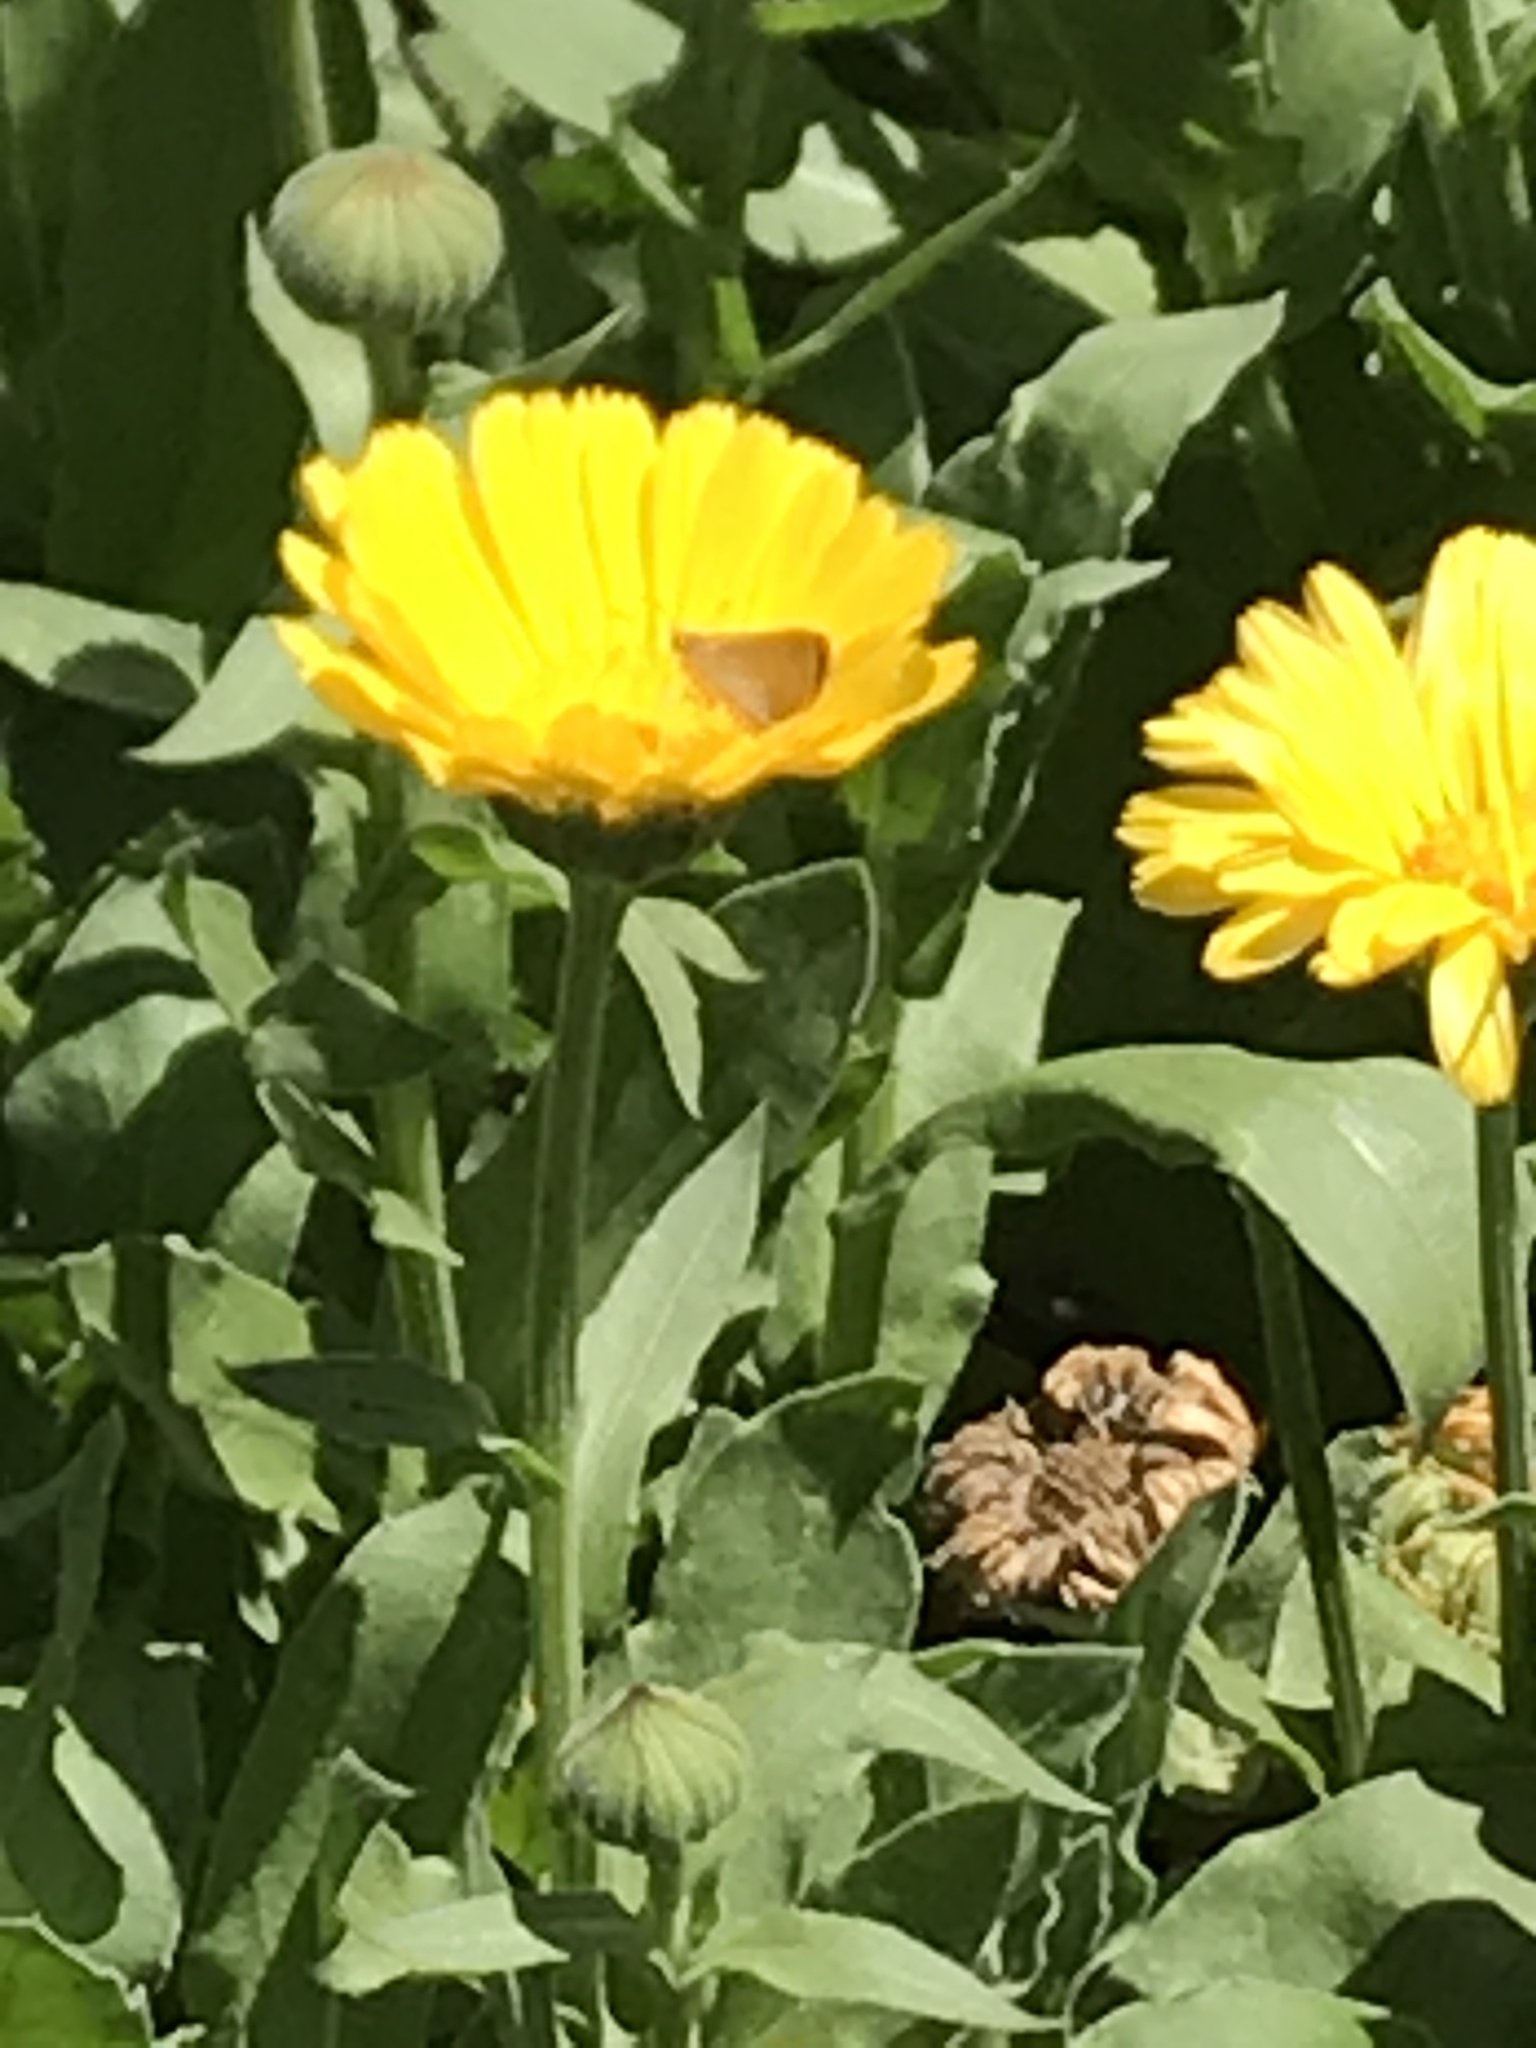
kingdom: Animalia
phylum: Arthropoda
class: Insecta
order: Lepidoptera
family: Hesperiidae
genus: Lerodea
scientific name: Lerodea eufala
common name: Eufala skipper
